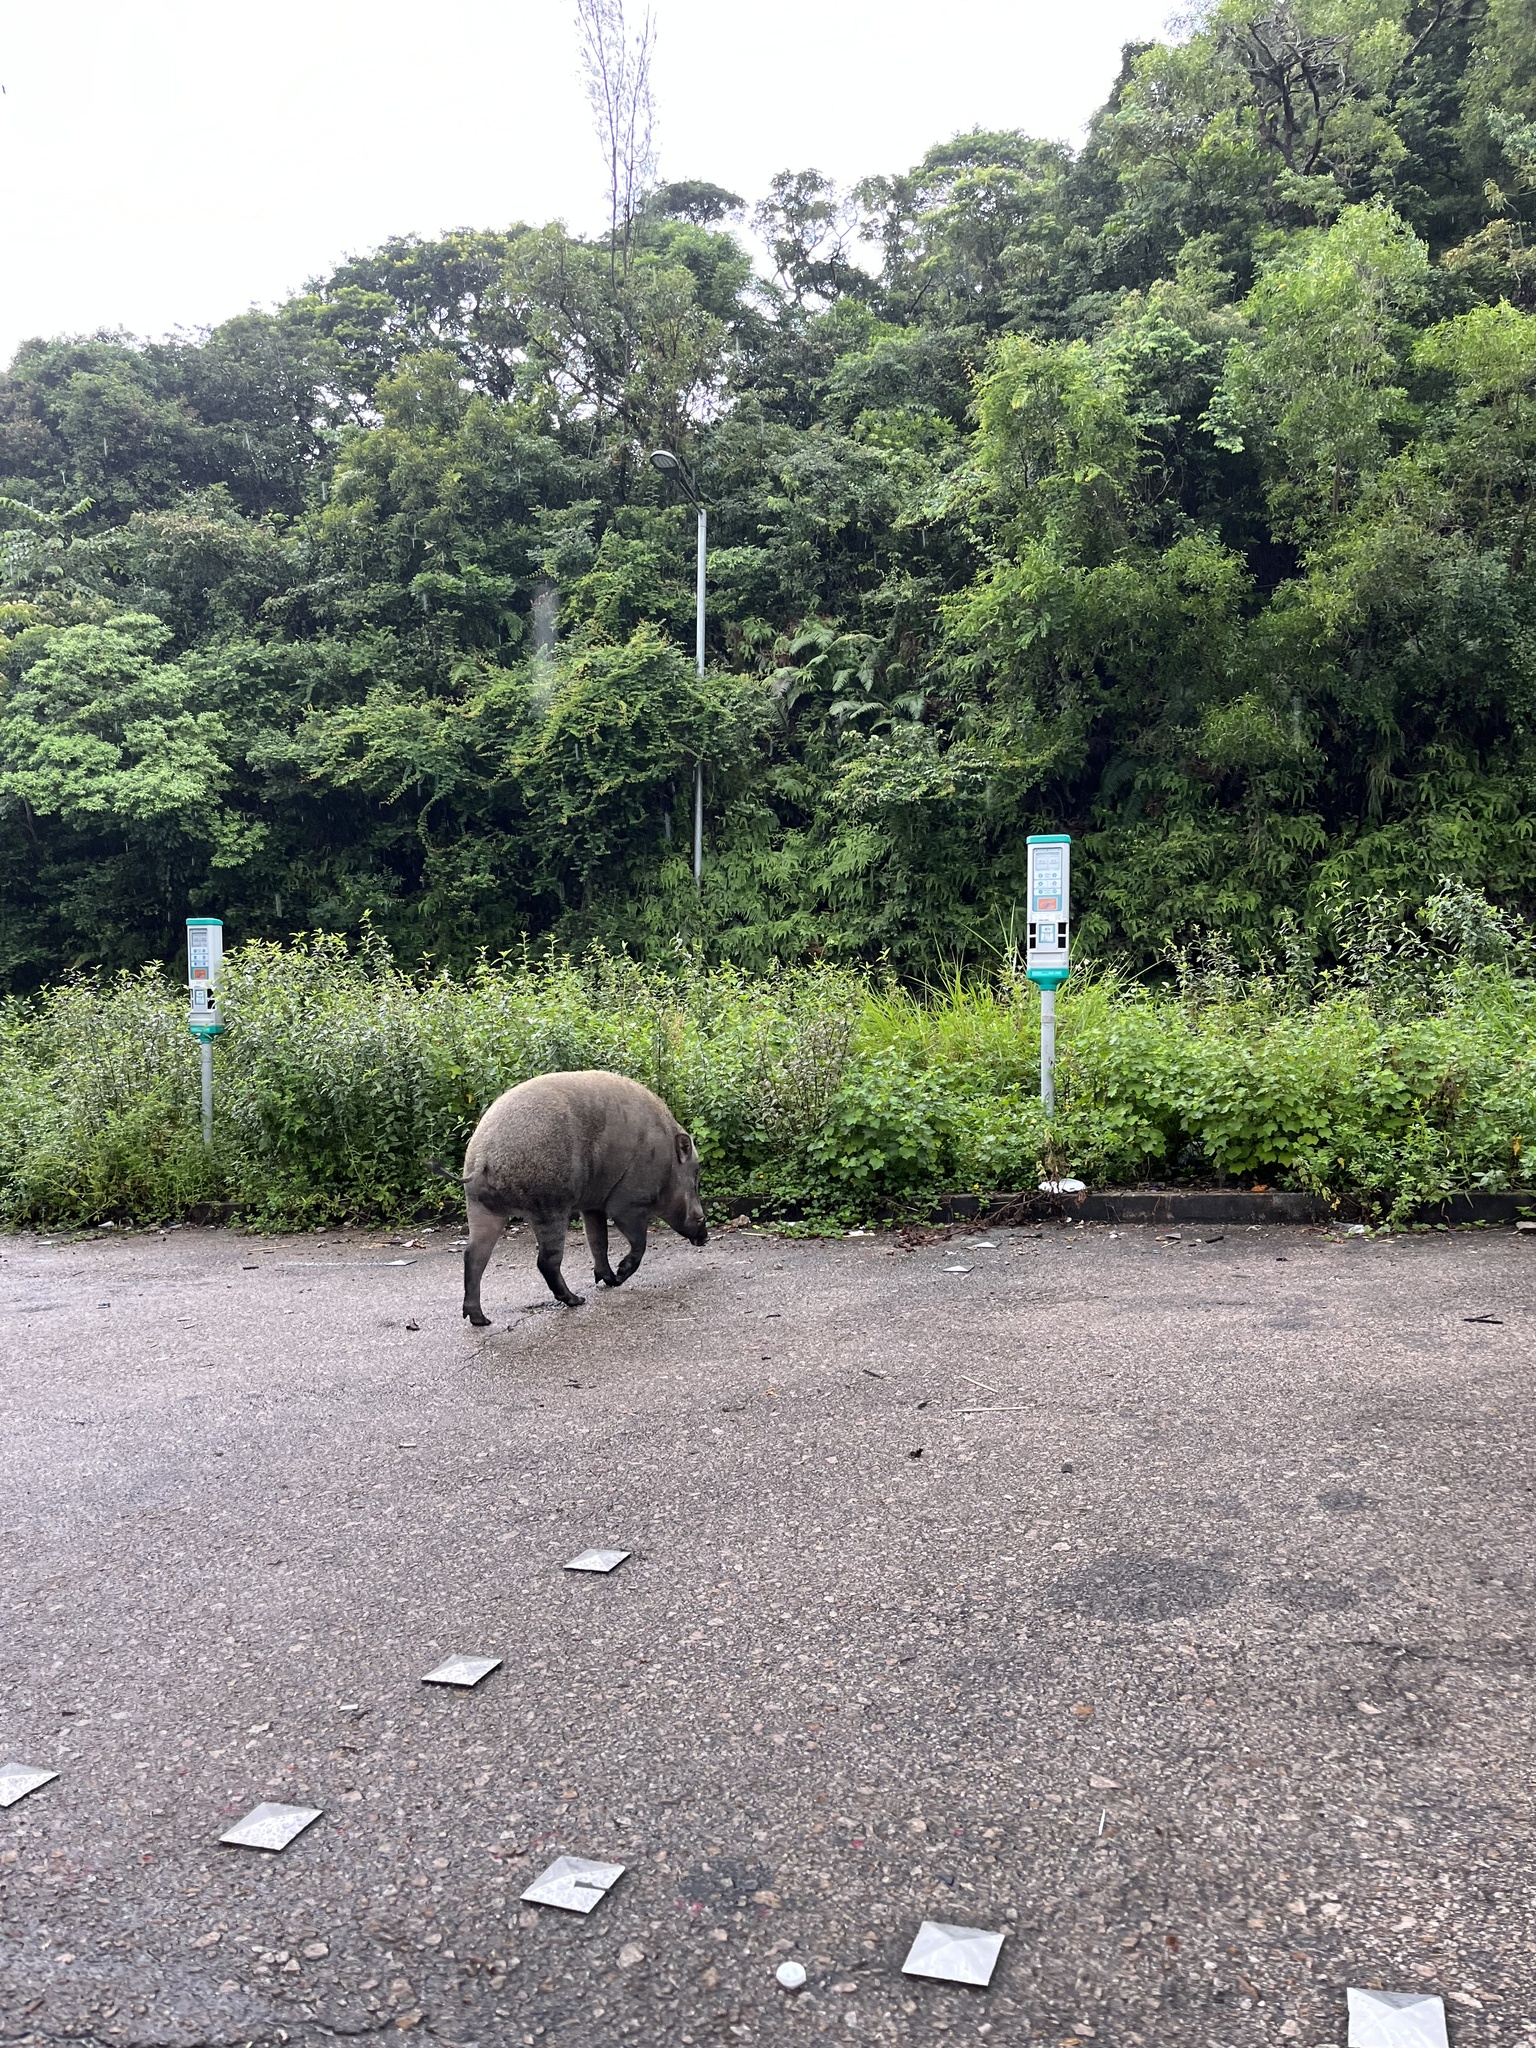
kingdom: Animalia
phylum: Chordata
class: Mammalia
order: Artiodactyla
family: Suidae
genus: Sus
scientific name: Sus scrofa
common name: Wild boar
